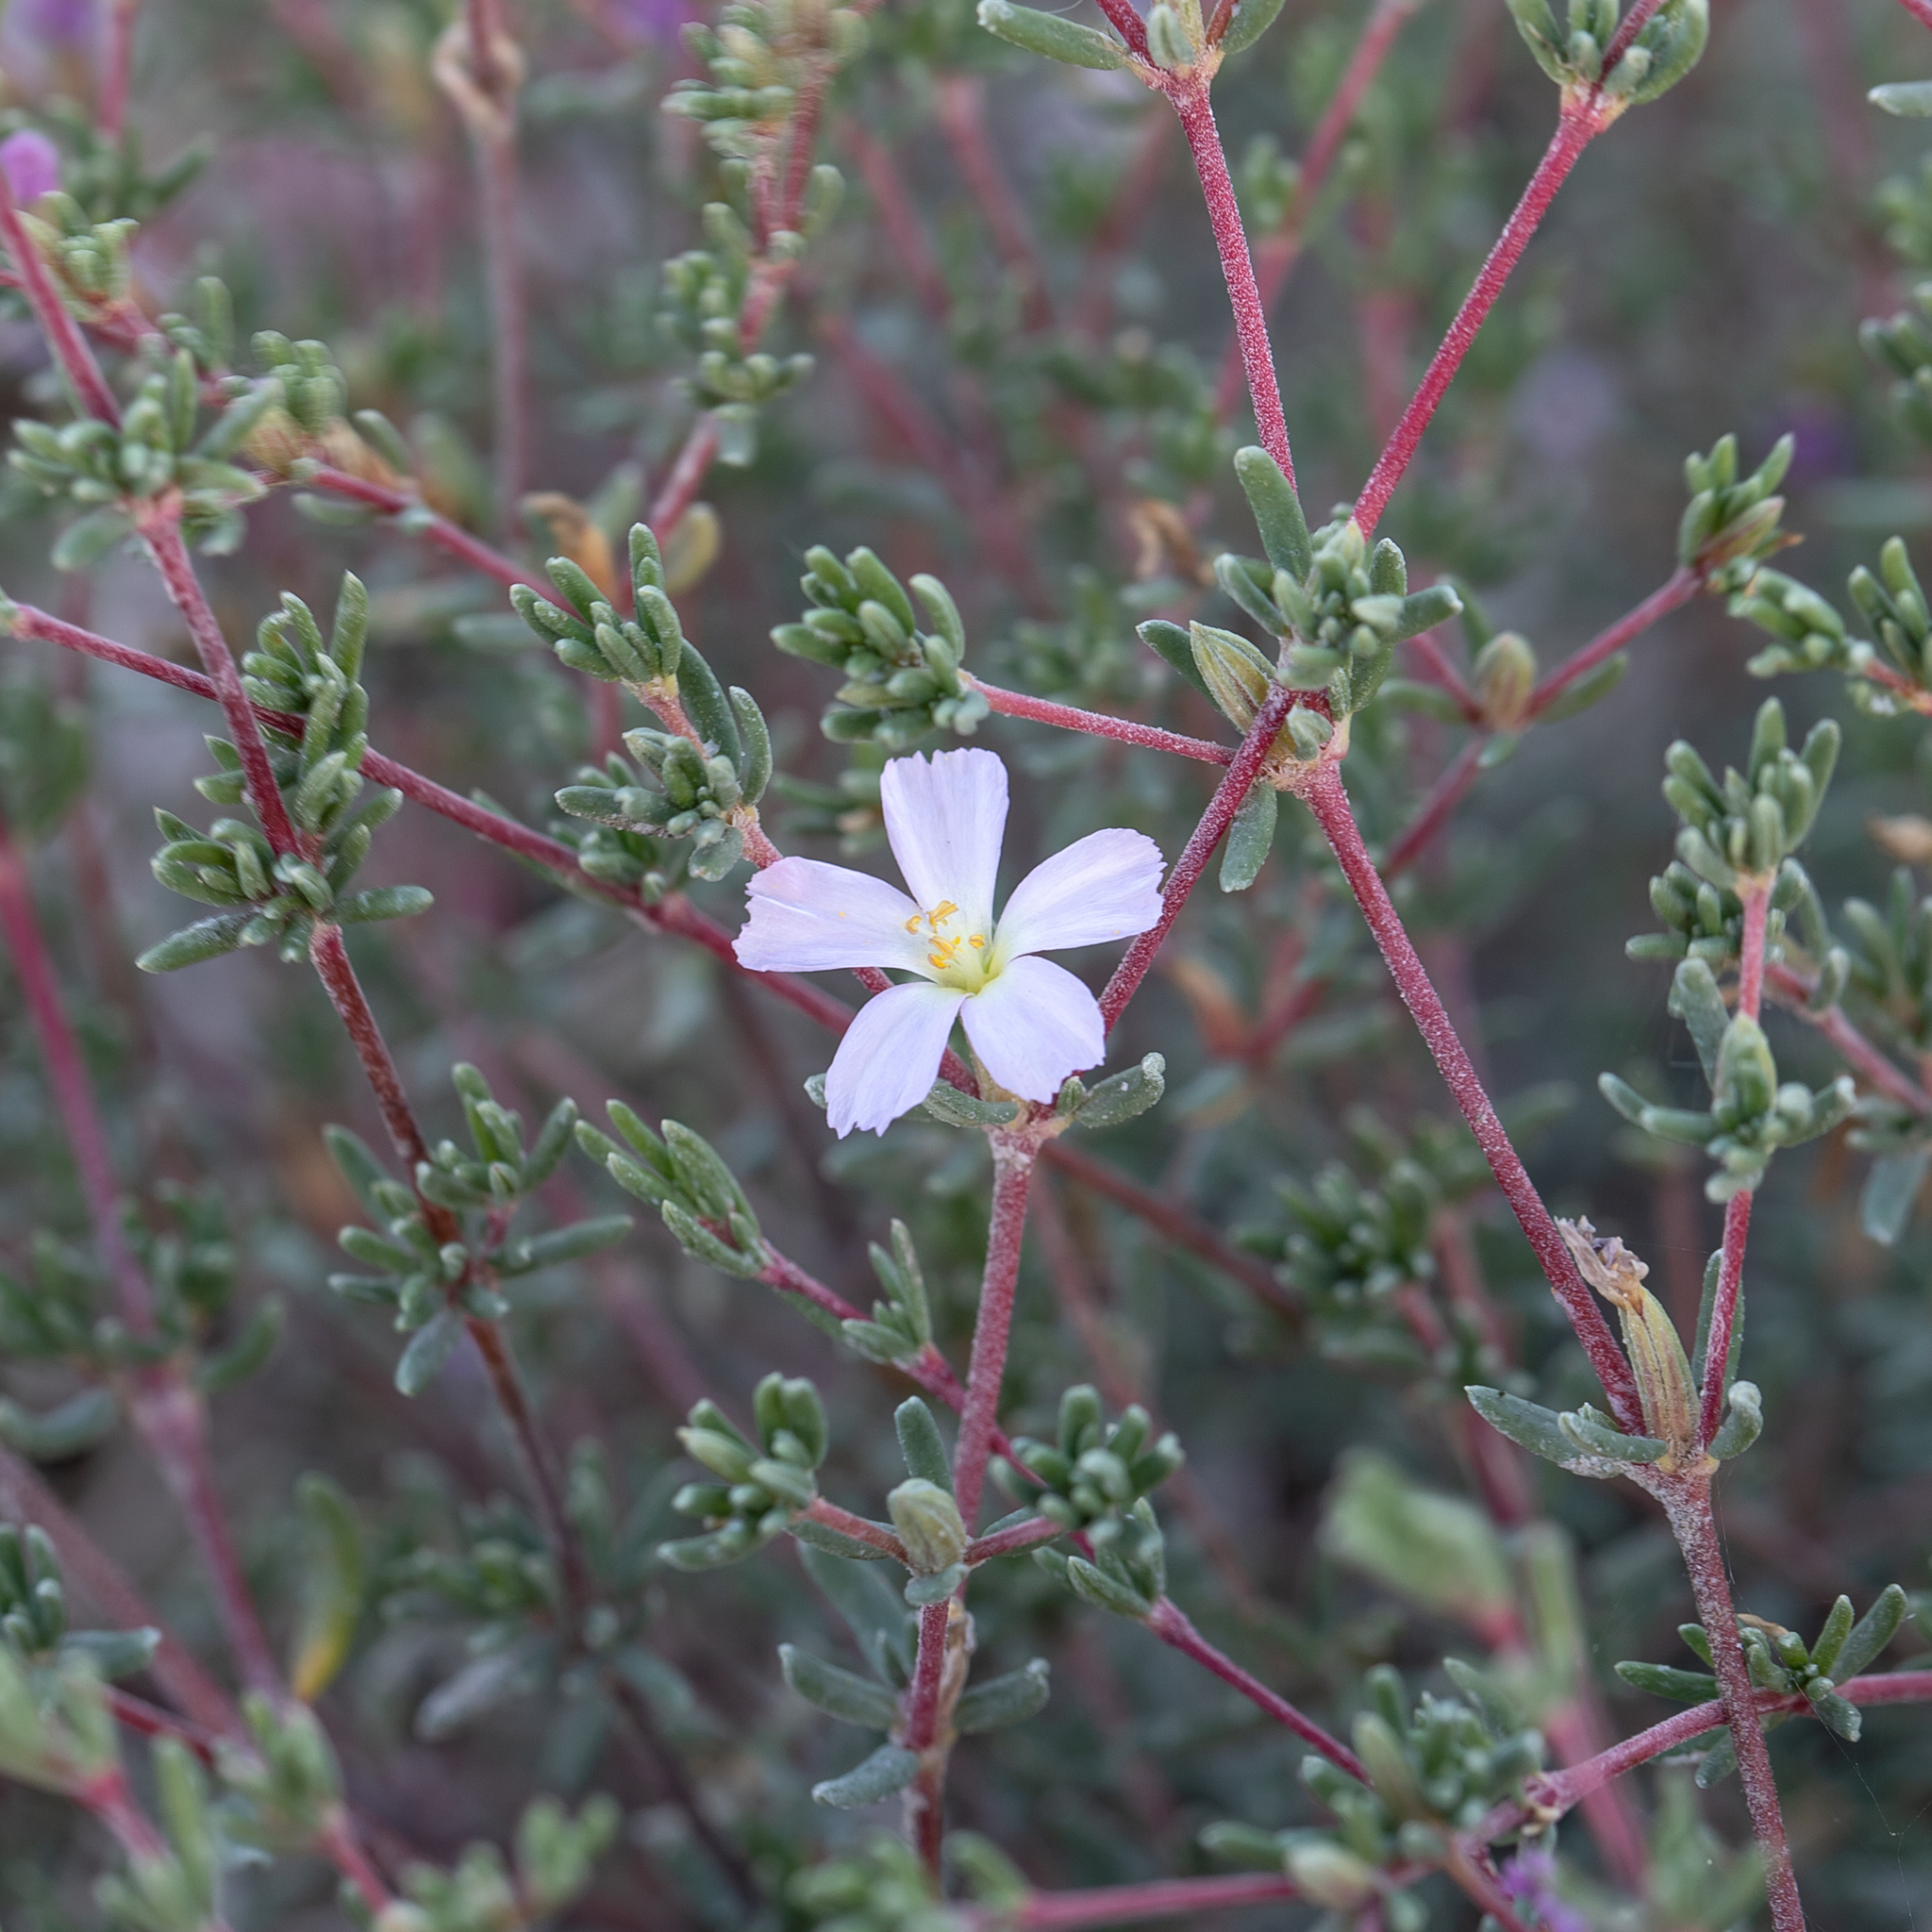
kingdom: Plantae
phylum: Tracheophyta
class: Magnoliopsida
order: Caryophyllales
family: Frankeniaceae
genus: Frankenia
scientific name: Frankenia pauciflora
